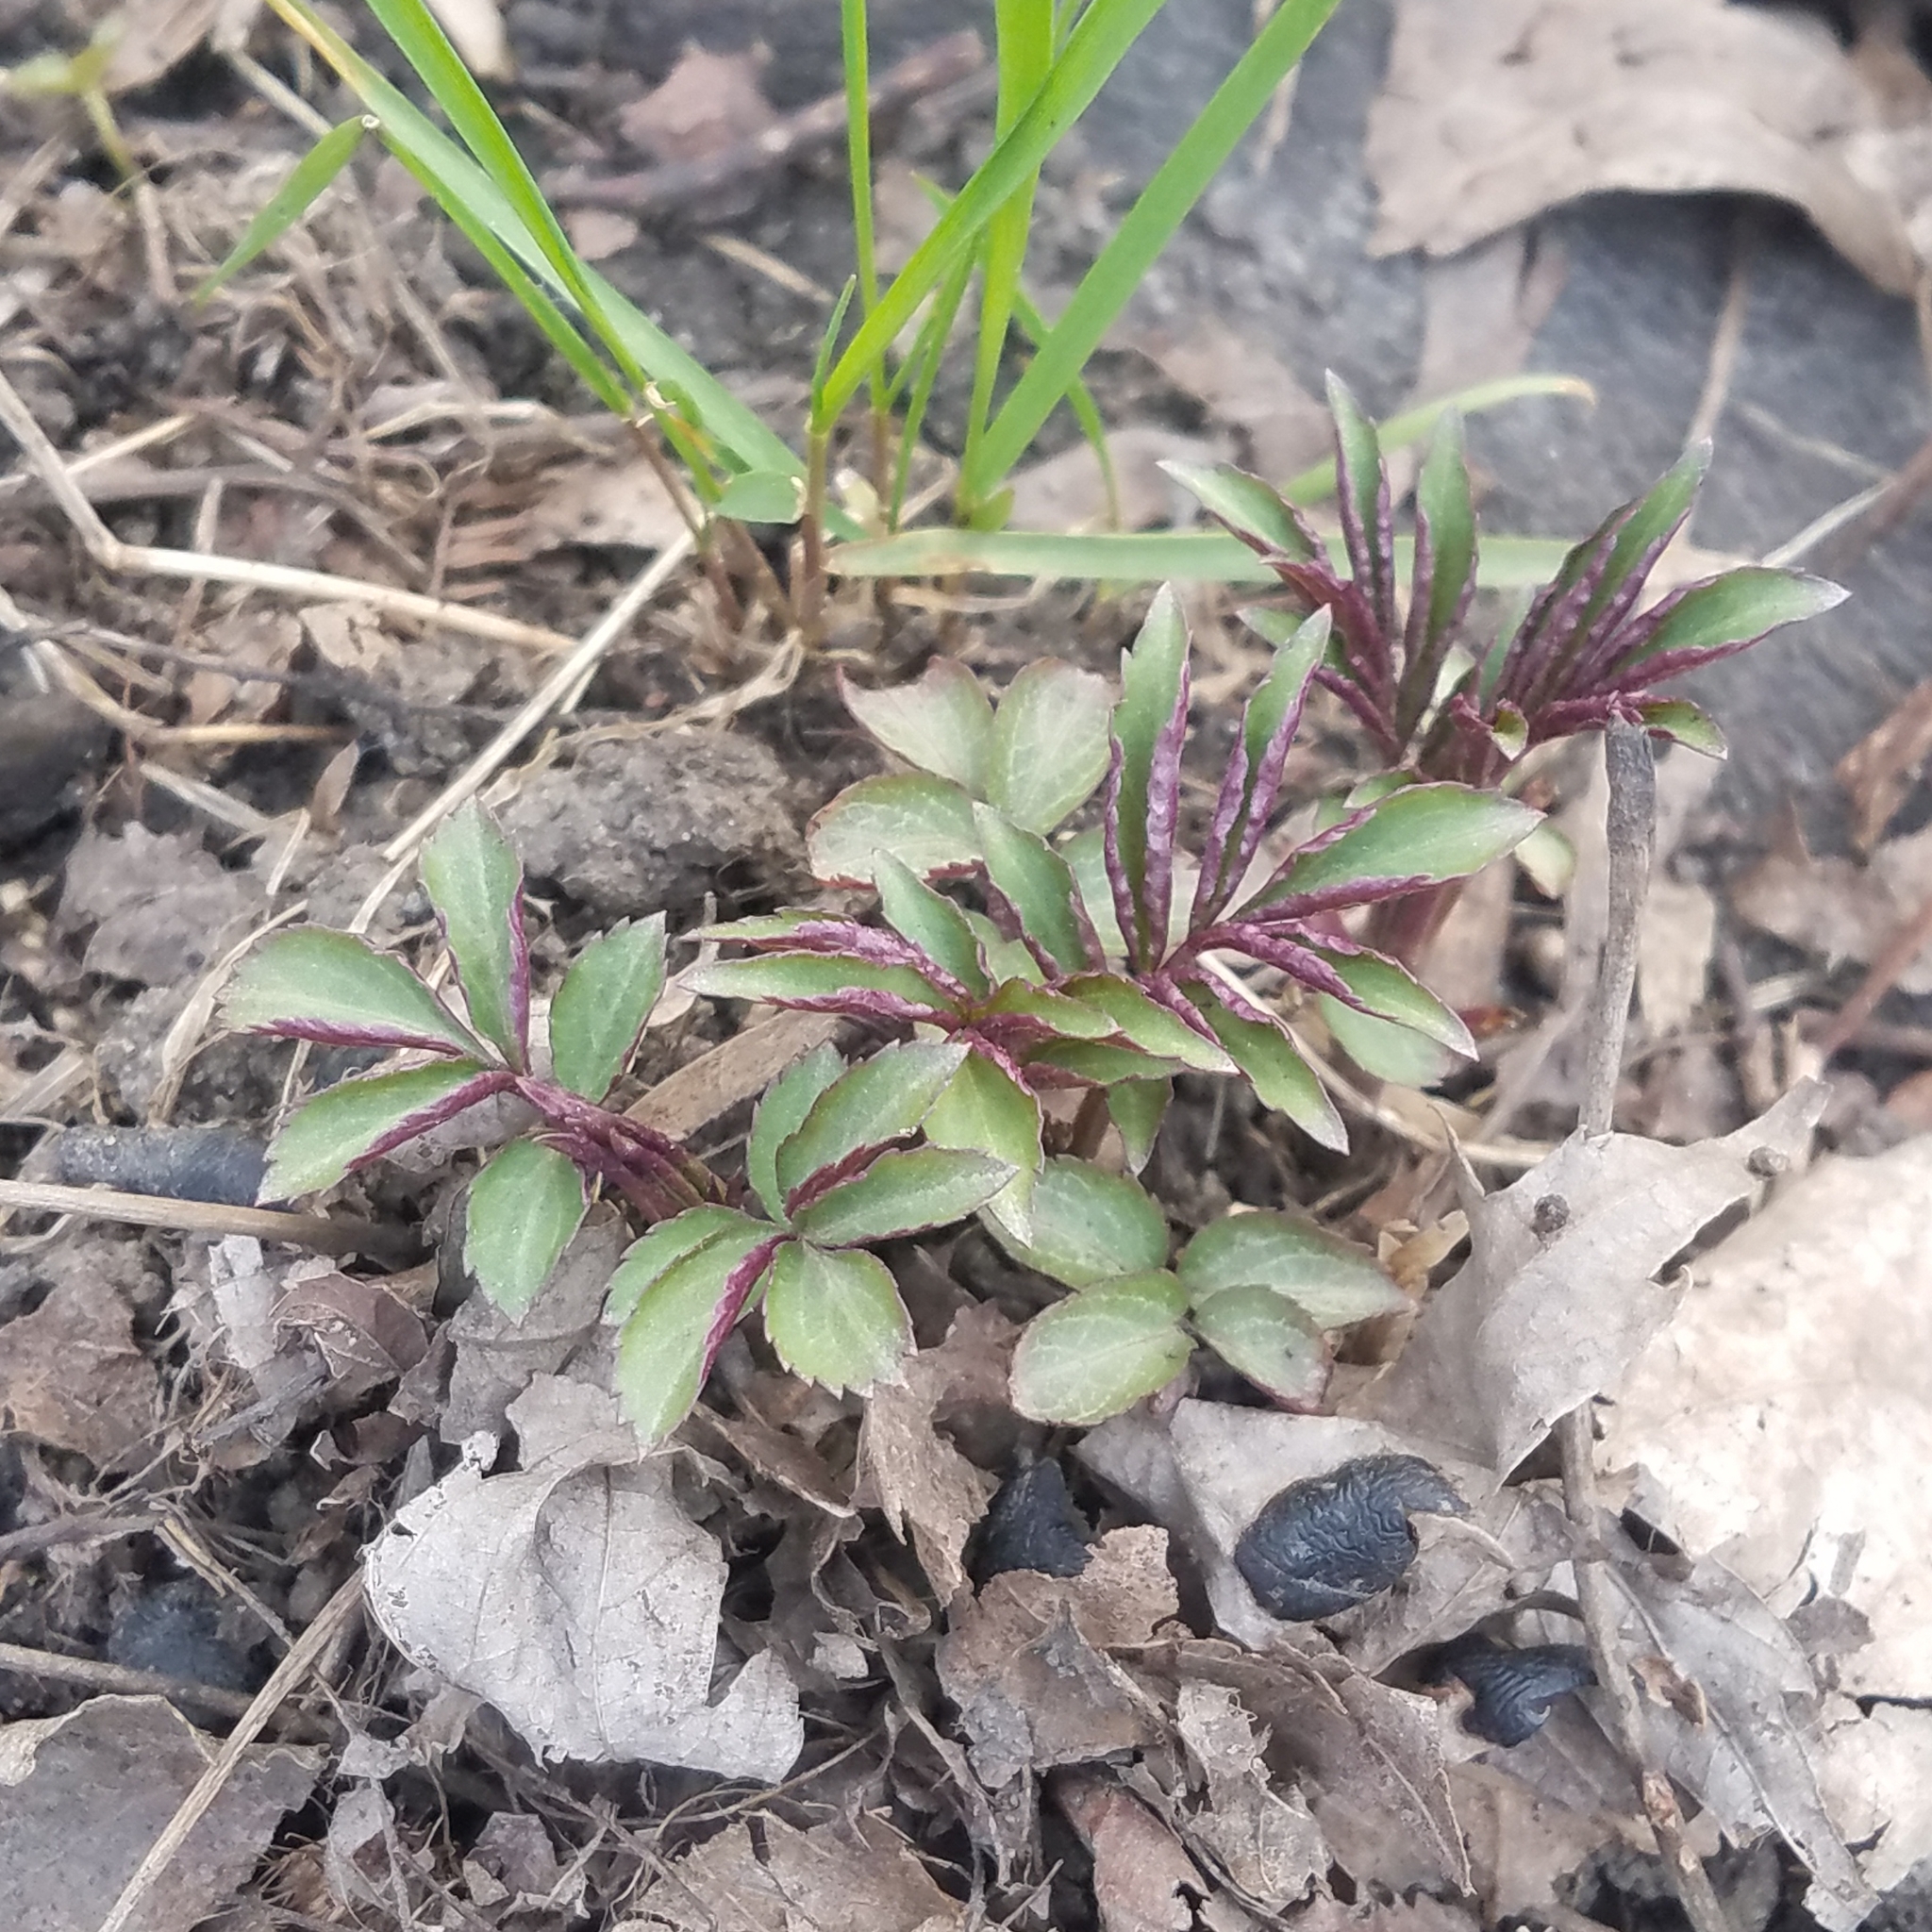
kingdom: Plantae
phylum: Tracheophyta
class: Magnoliopsida
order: Dipsacales
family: Viburnaceae
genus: Sambucus
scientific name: Sambucus canadensis
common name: American elder
